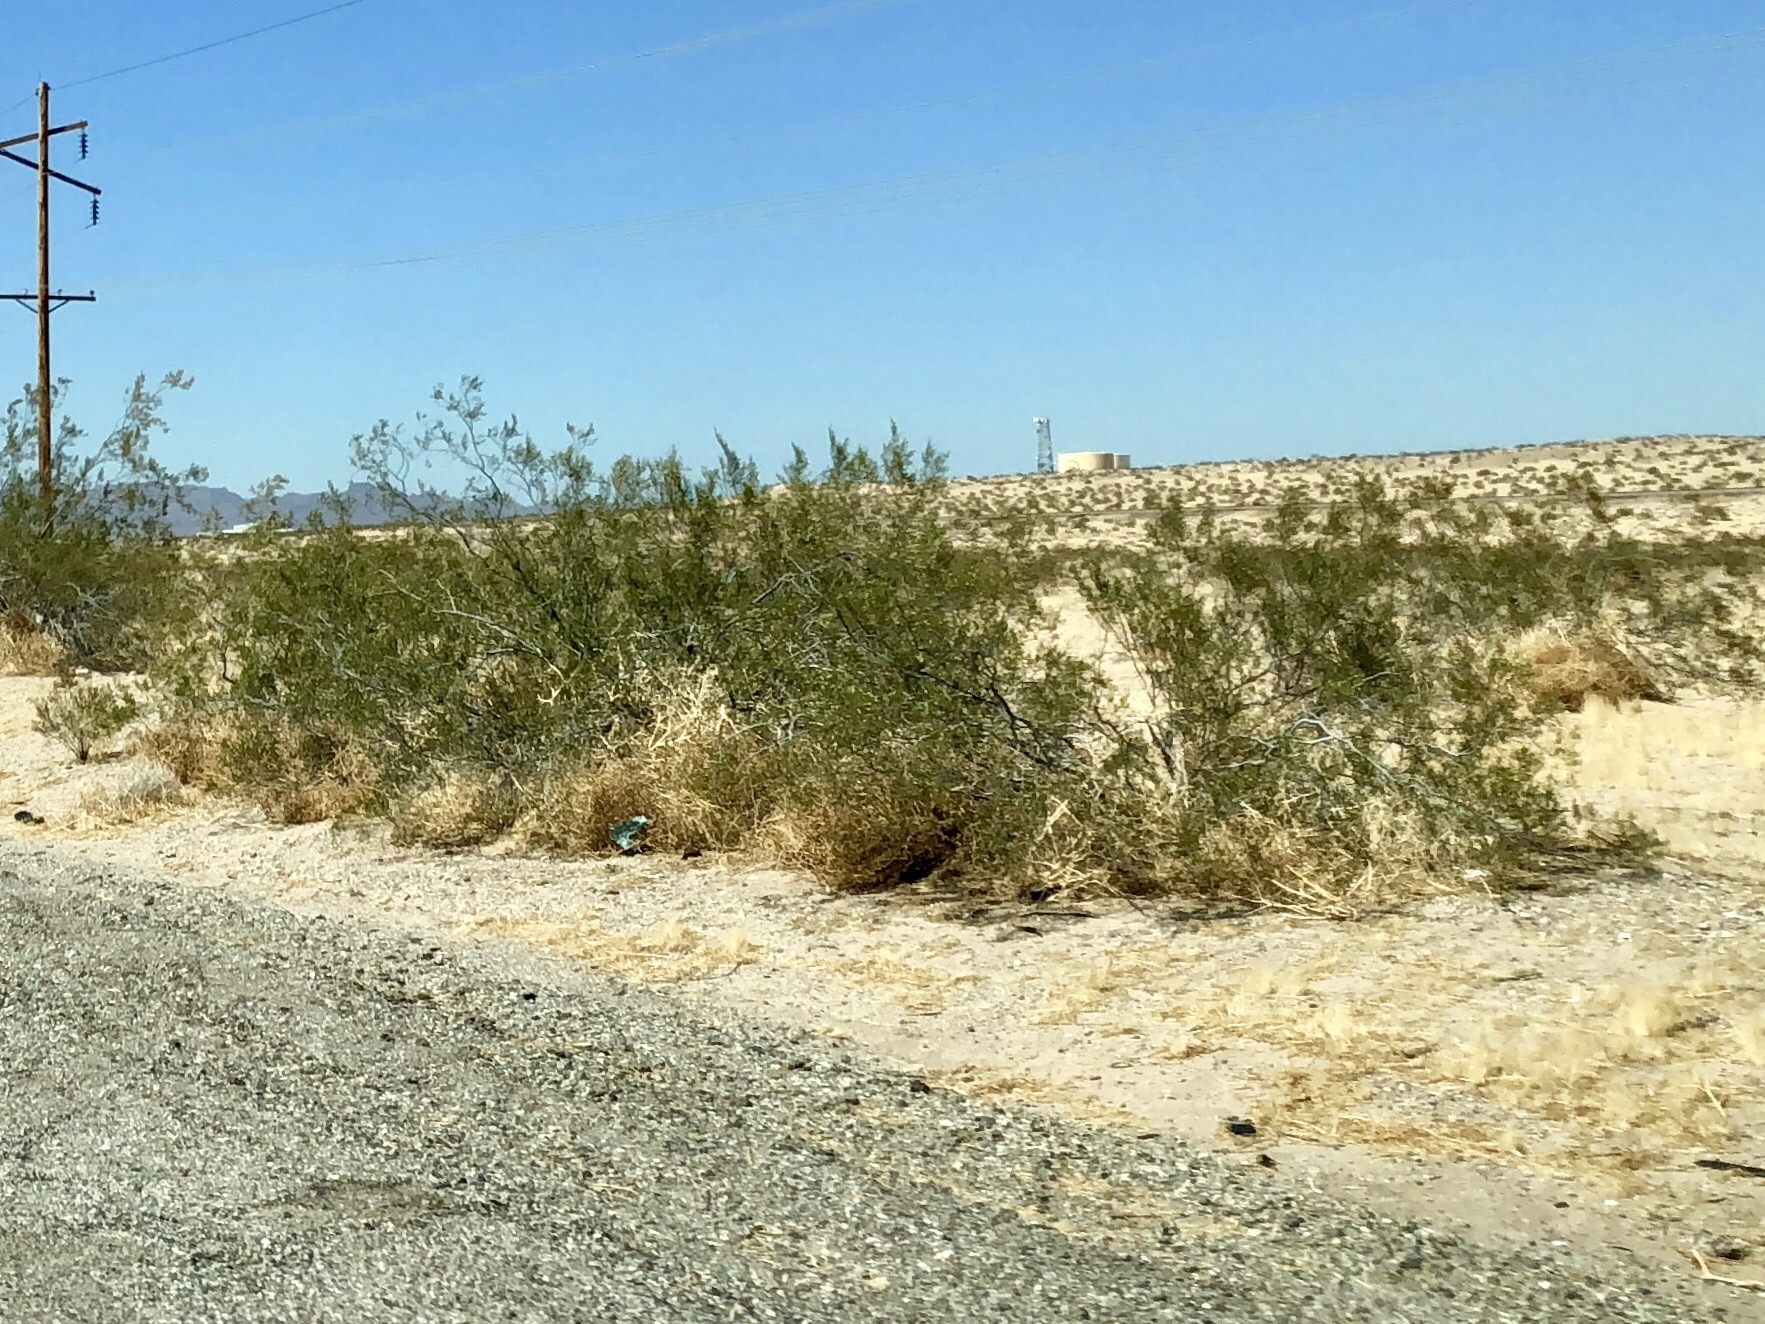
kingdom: Plantae
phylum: Tracheophyta
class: Magnoliopsida
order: Zygophyllales
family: Zygophyllaceae
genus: Larrea
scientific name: Larrea tridentata
